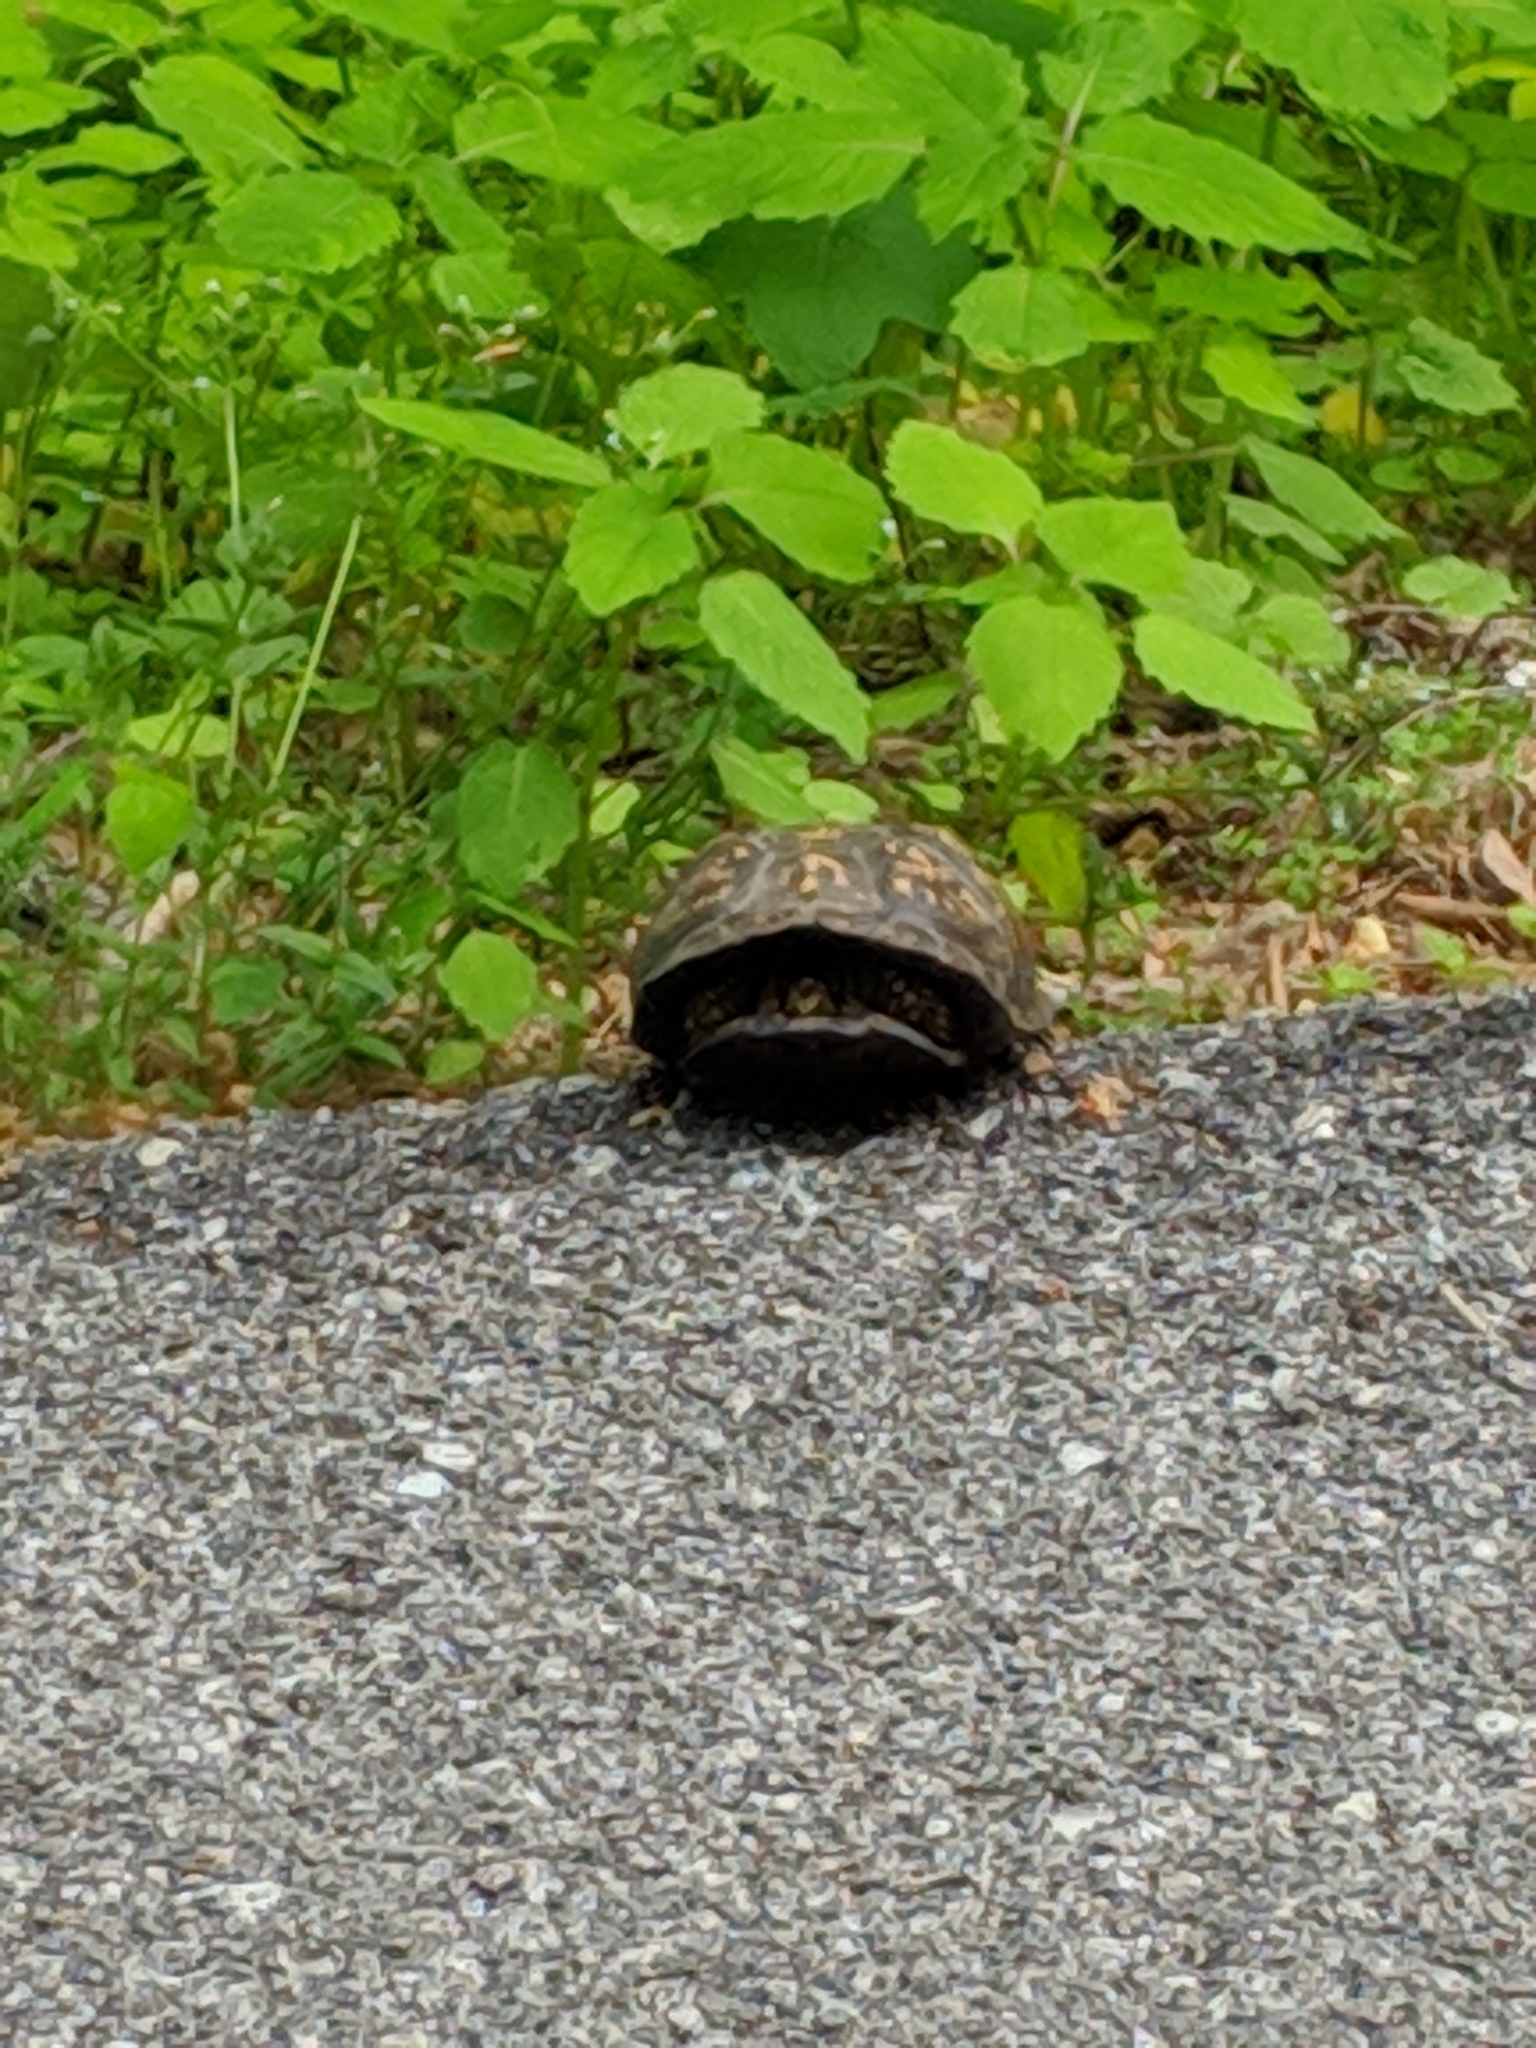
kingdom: Animalia
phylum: Chordata
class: Testudines
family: Emydidae
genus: Terrapene
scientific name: Terrapene carolina
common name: Common box turtle
